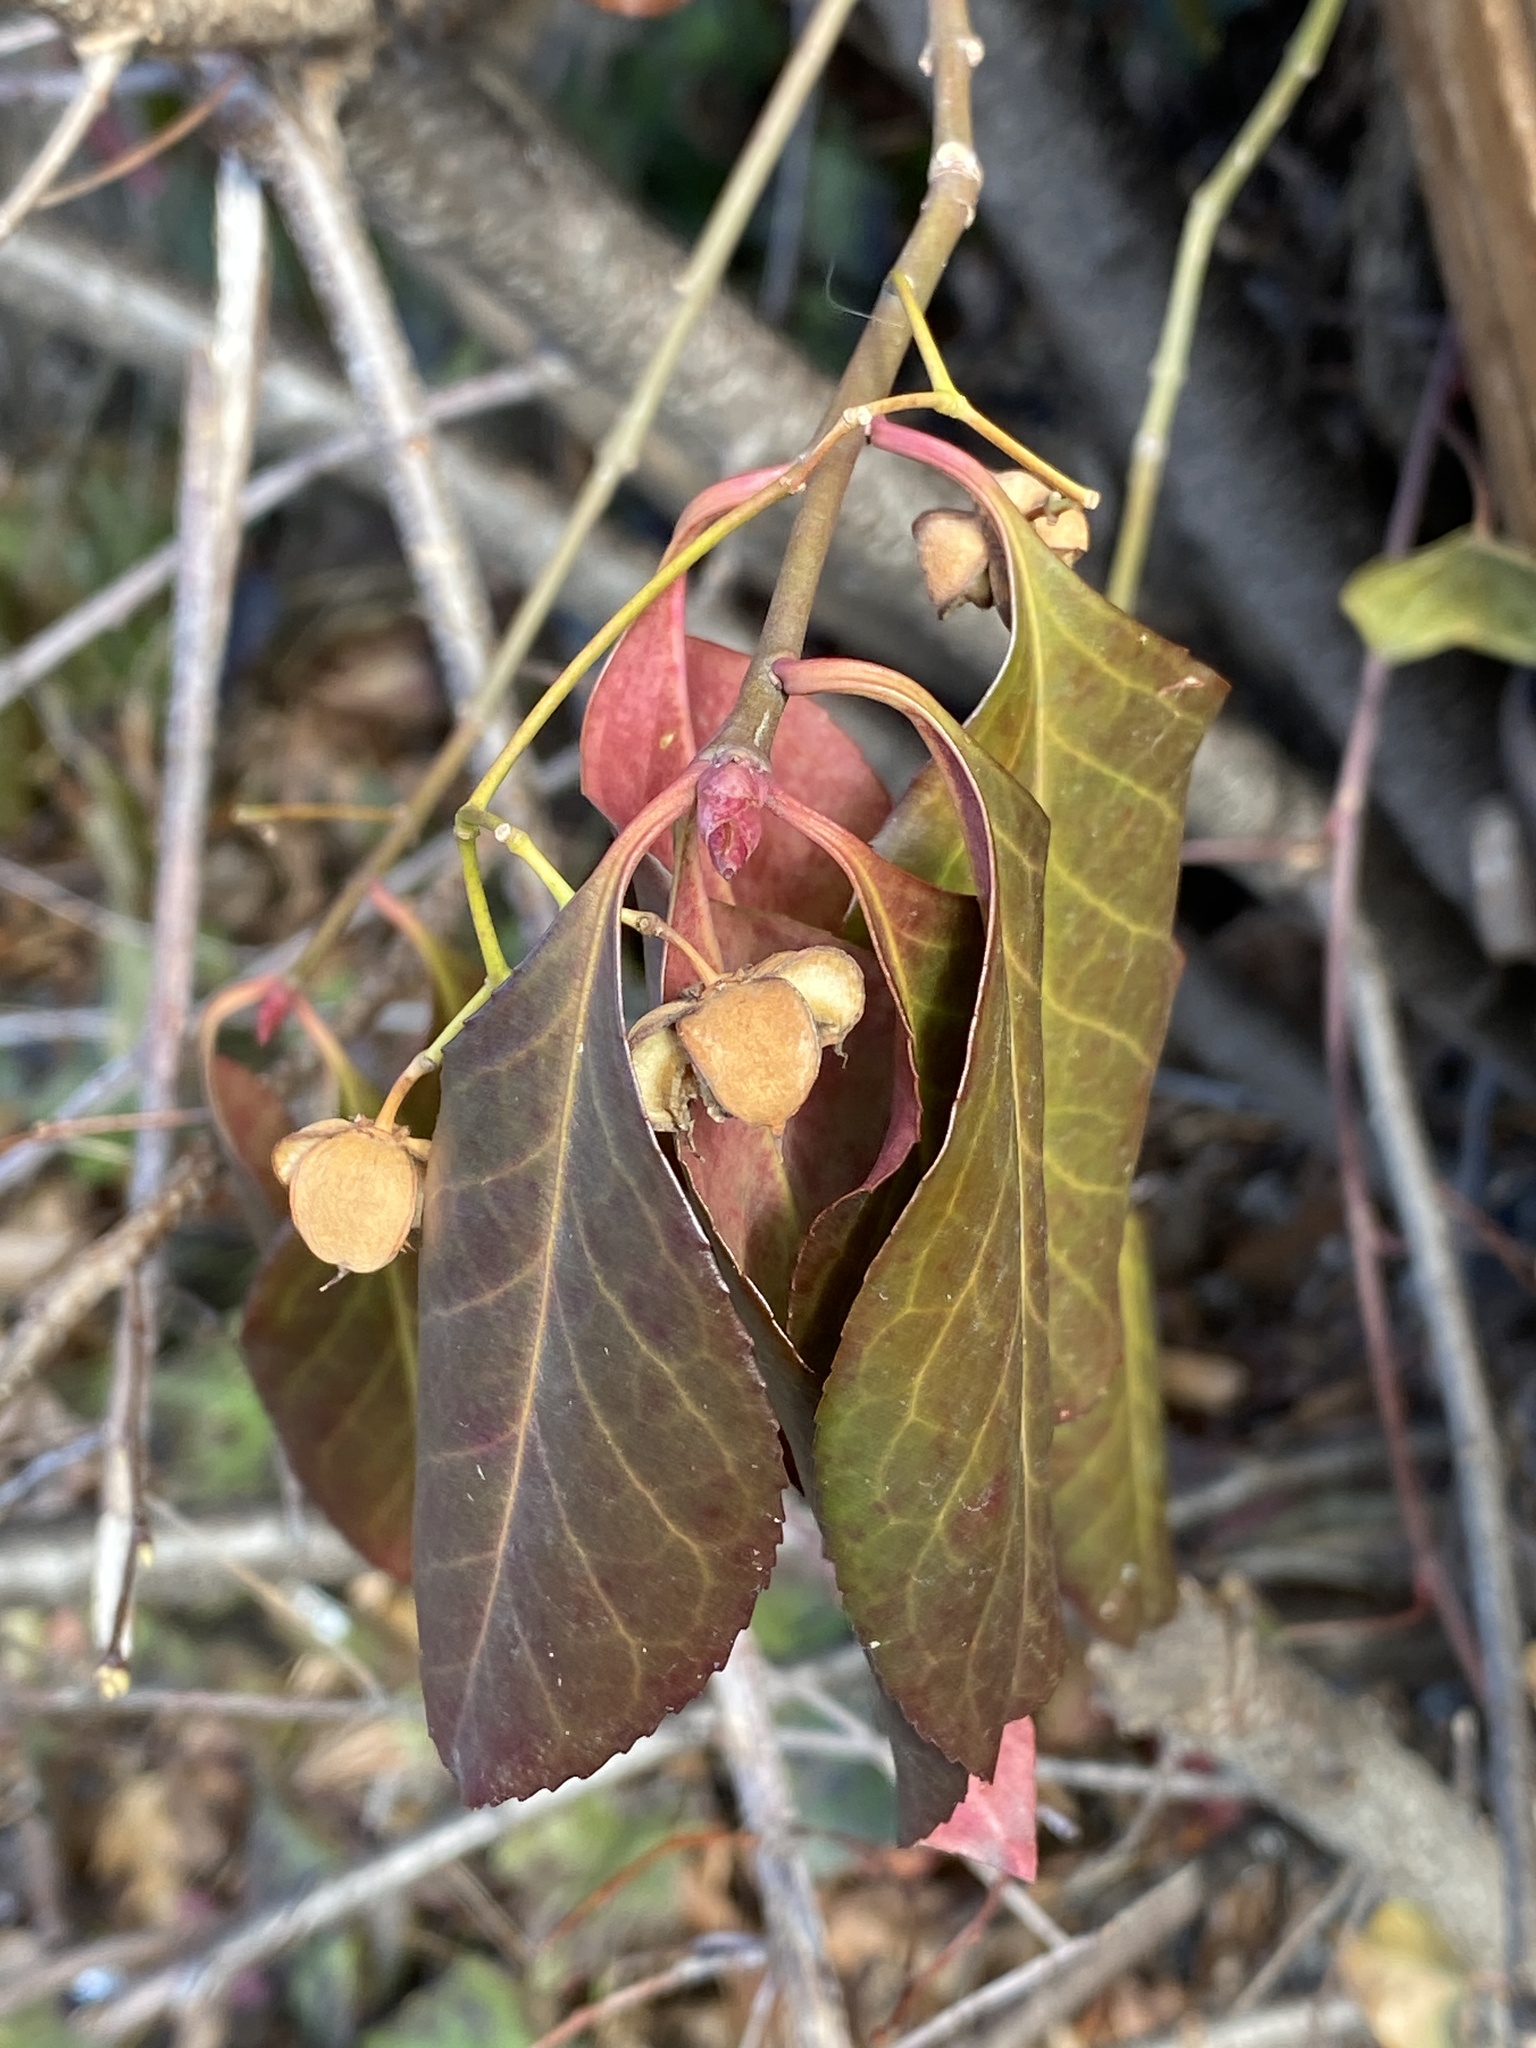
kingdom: Plantae
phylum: Tracheophyta
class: Magnoliopsida
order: Celastrales
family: Celastraceae
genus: Euonymus
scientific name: Euonymus fortunei
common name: Climbing euonymus
